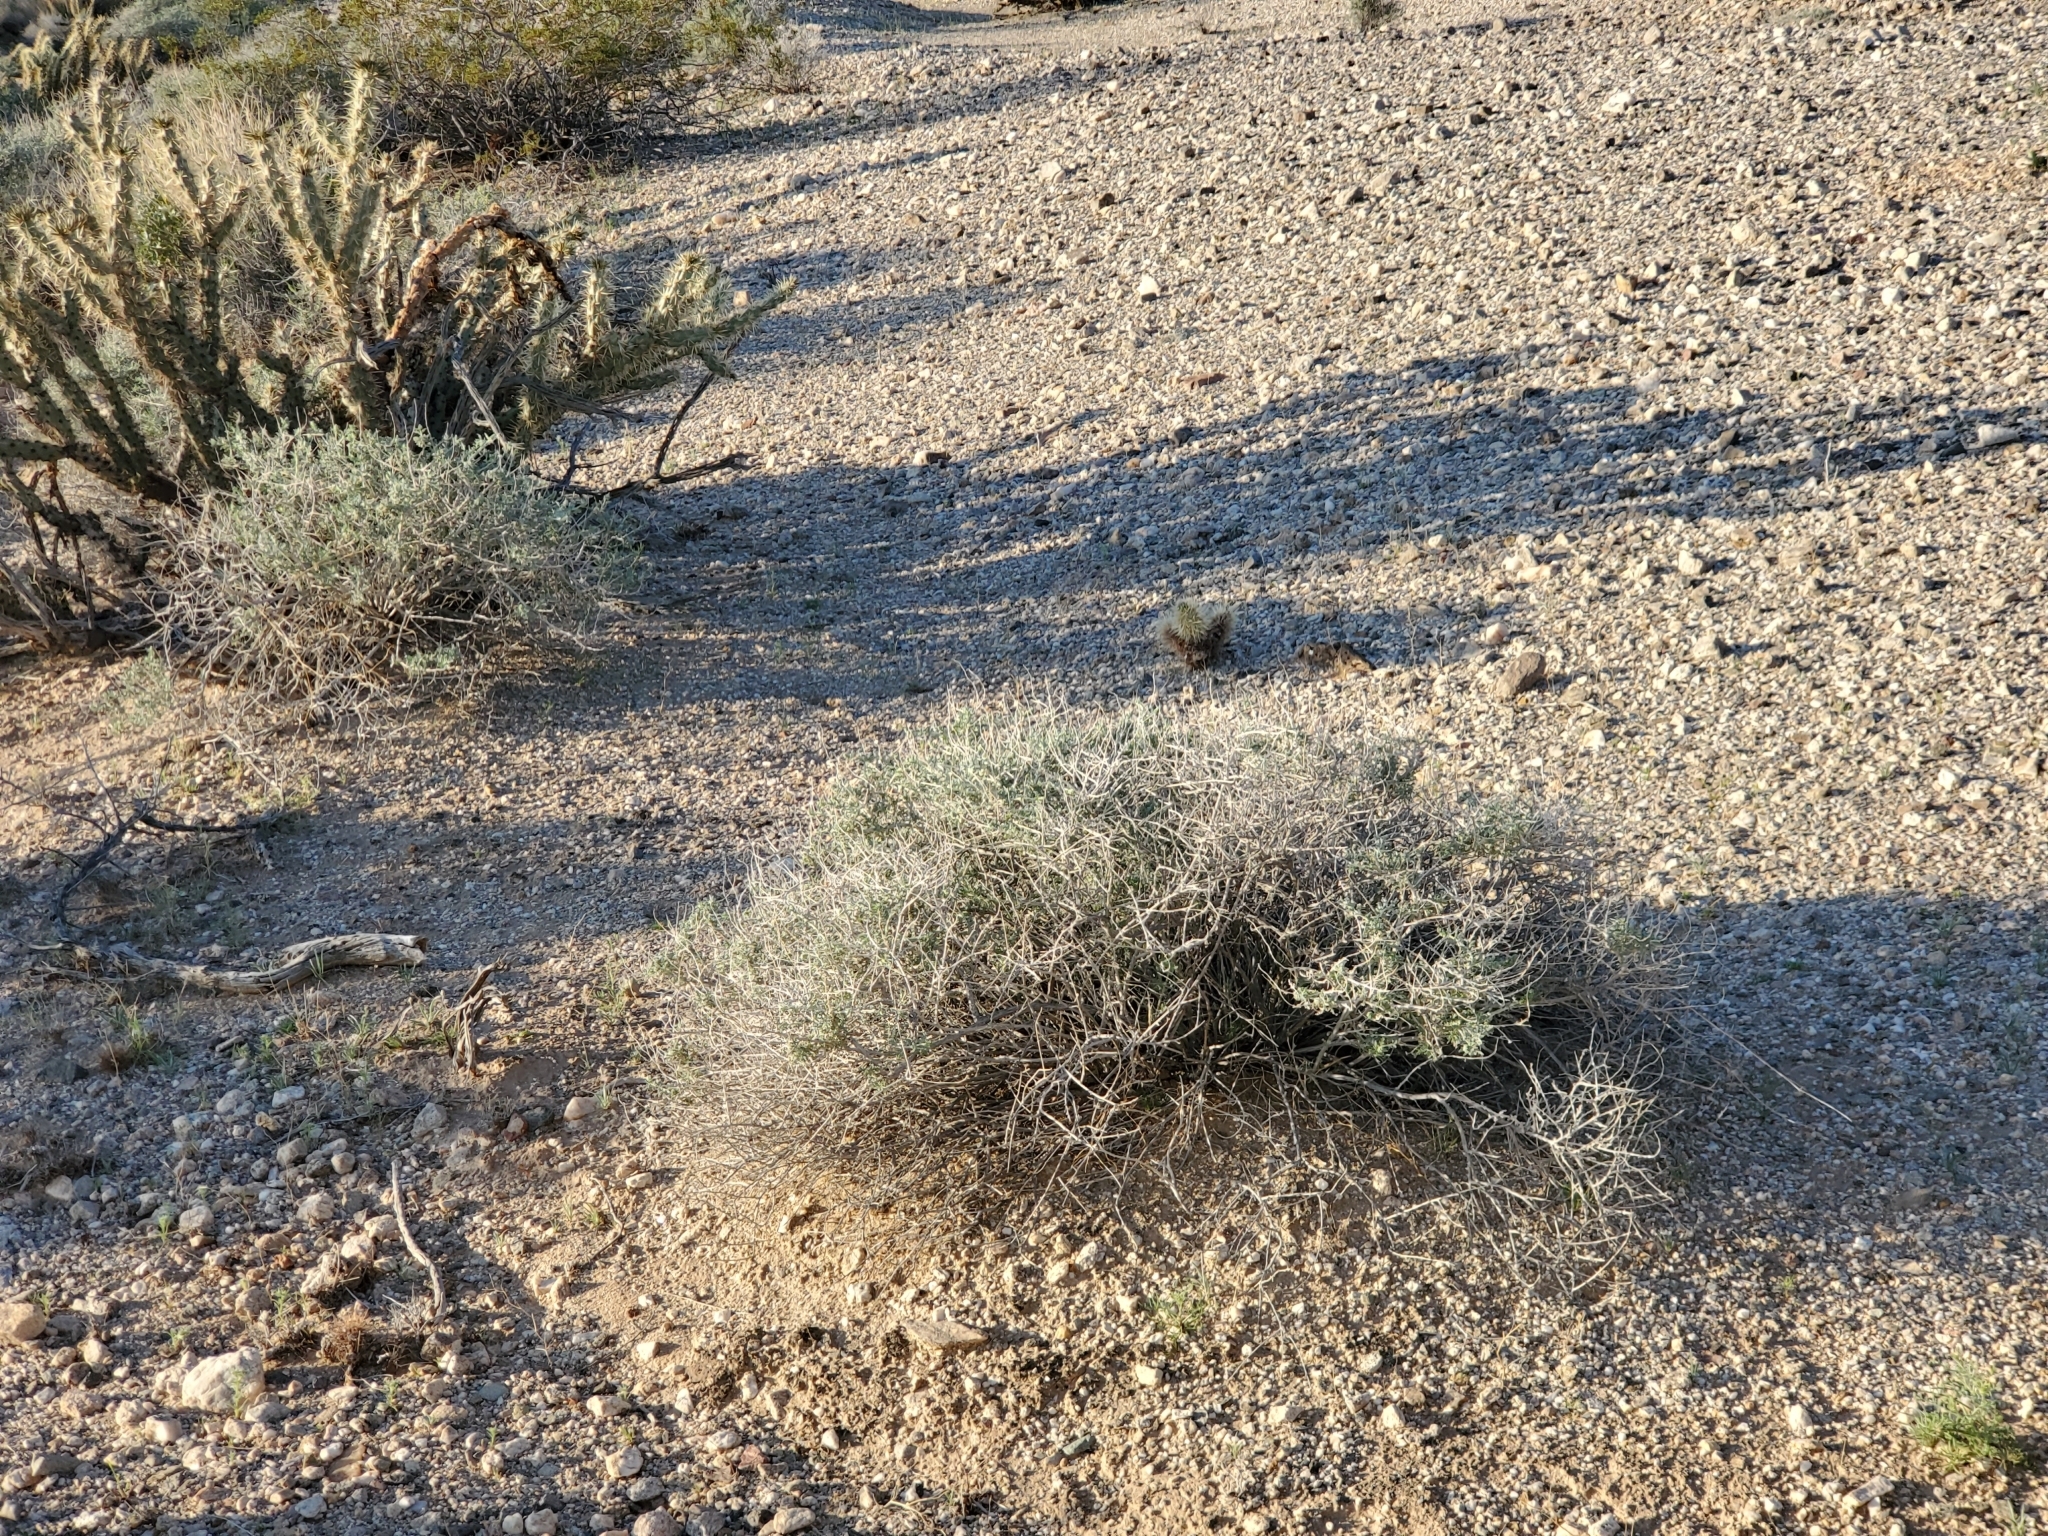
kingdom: Plantae
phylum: Tracheophyta
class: Magnoliopsida
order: Asterales
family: Asteraceae
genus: Ambrosia
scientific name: Ambrosia dumosa
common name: Bur-sage
